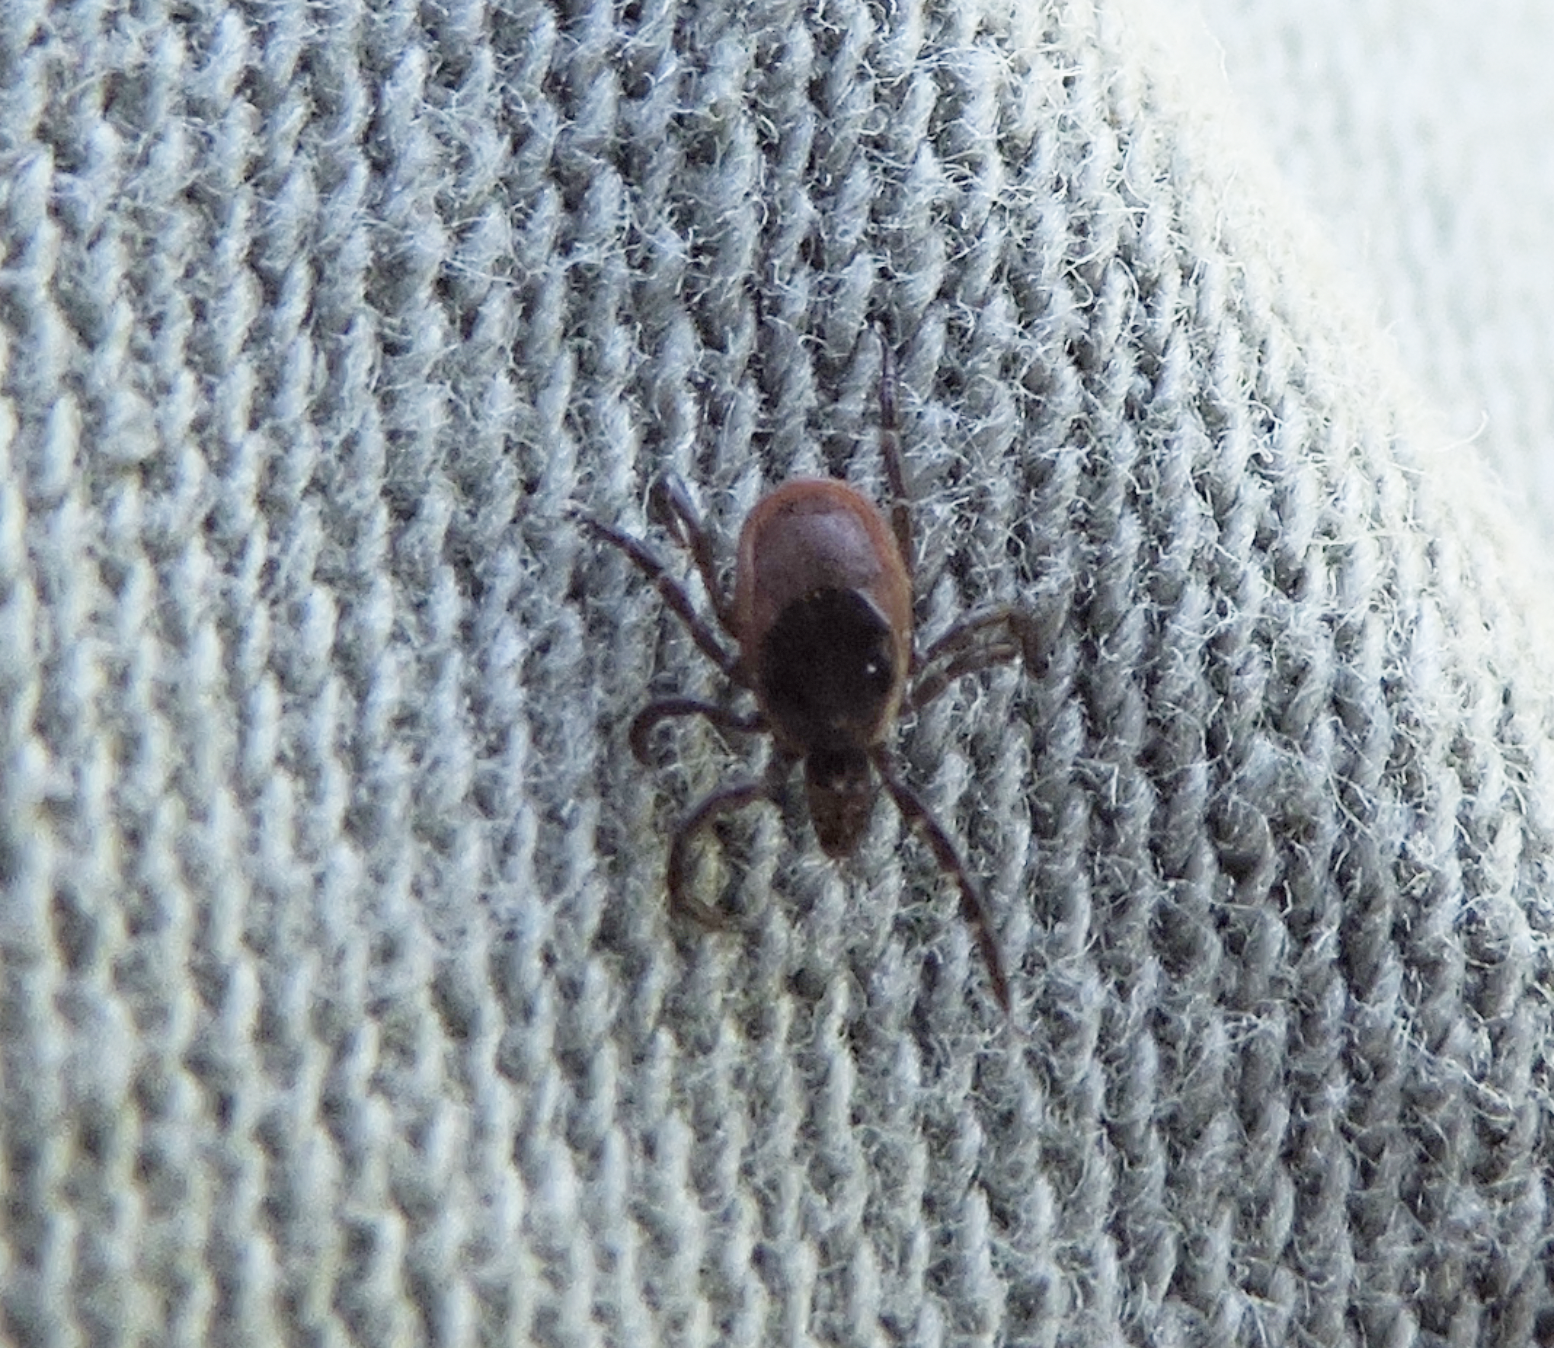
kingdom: Animalia
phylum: Arthropoda
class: Arachnida
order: Ixodida
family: Ixodidae
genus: Ixodes
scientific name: Ixodes scapularis
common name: Black legged tick
